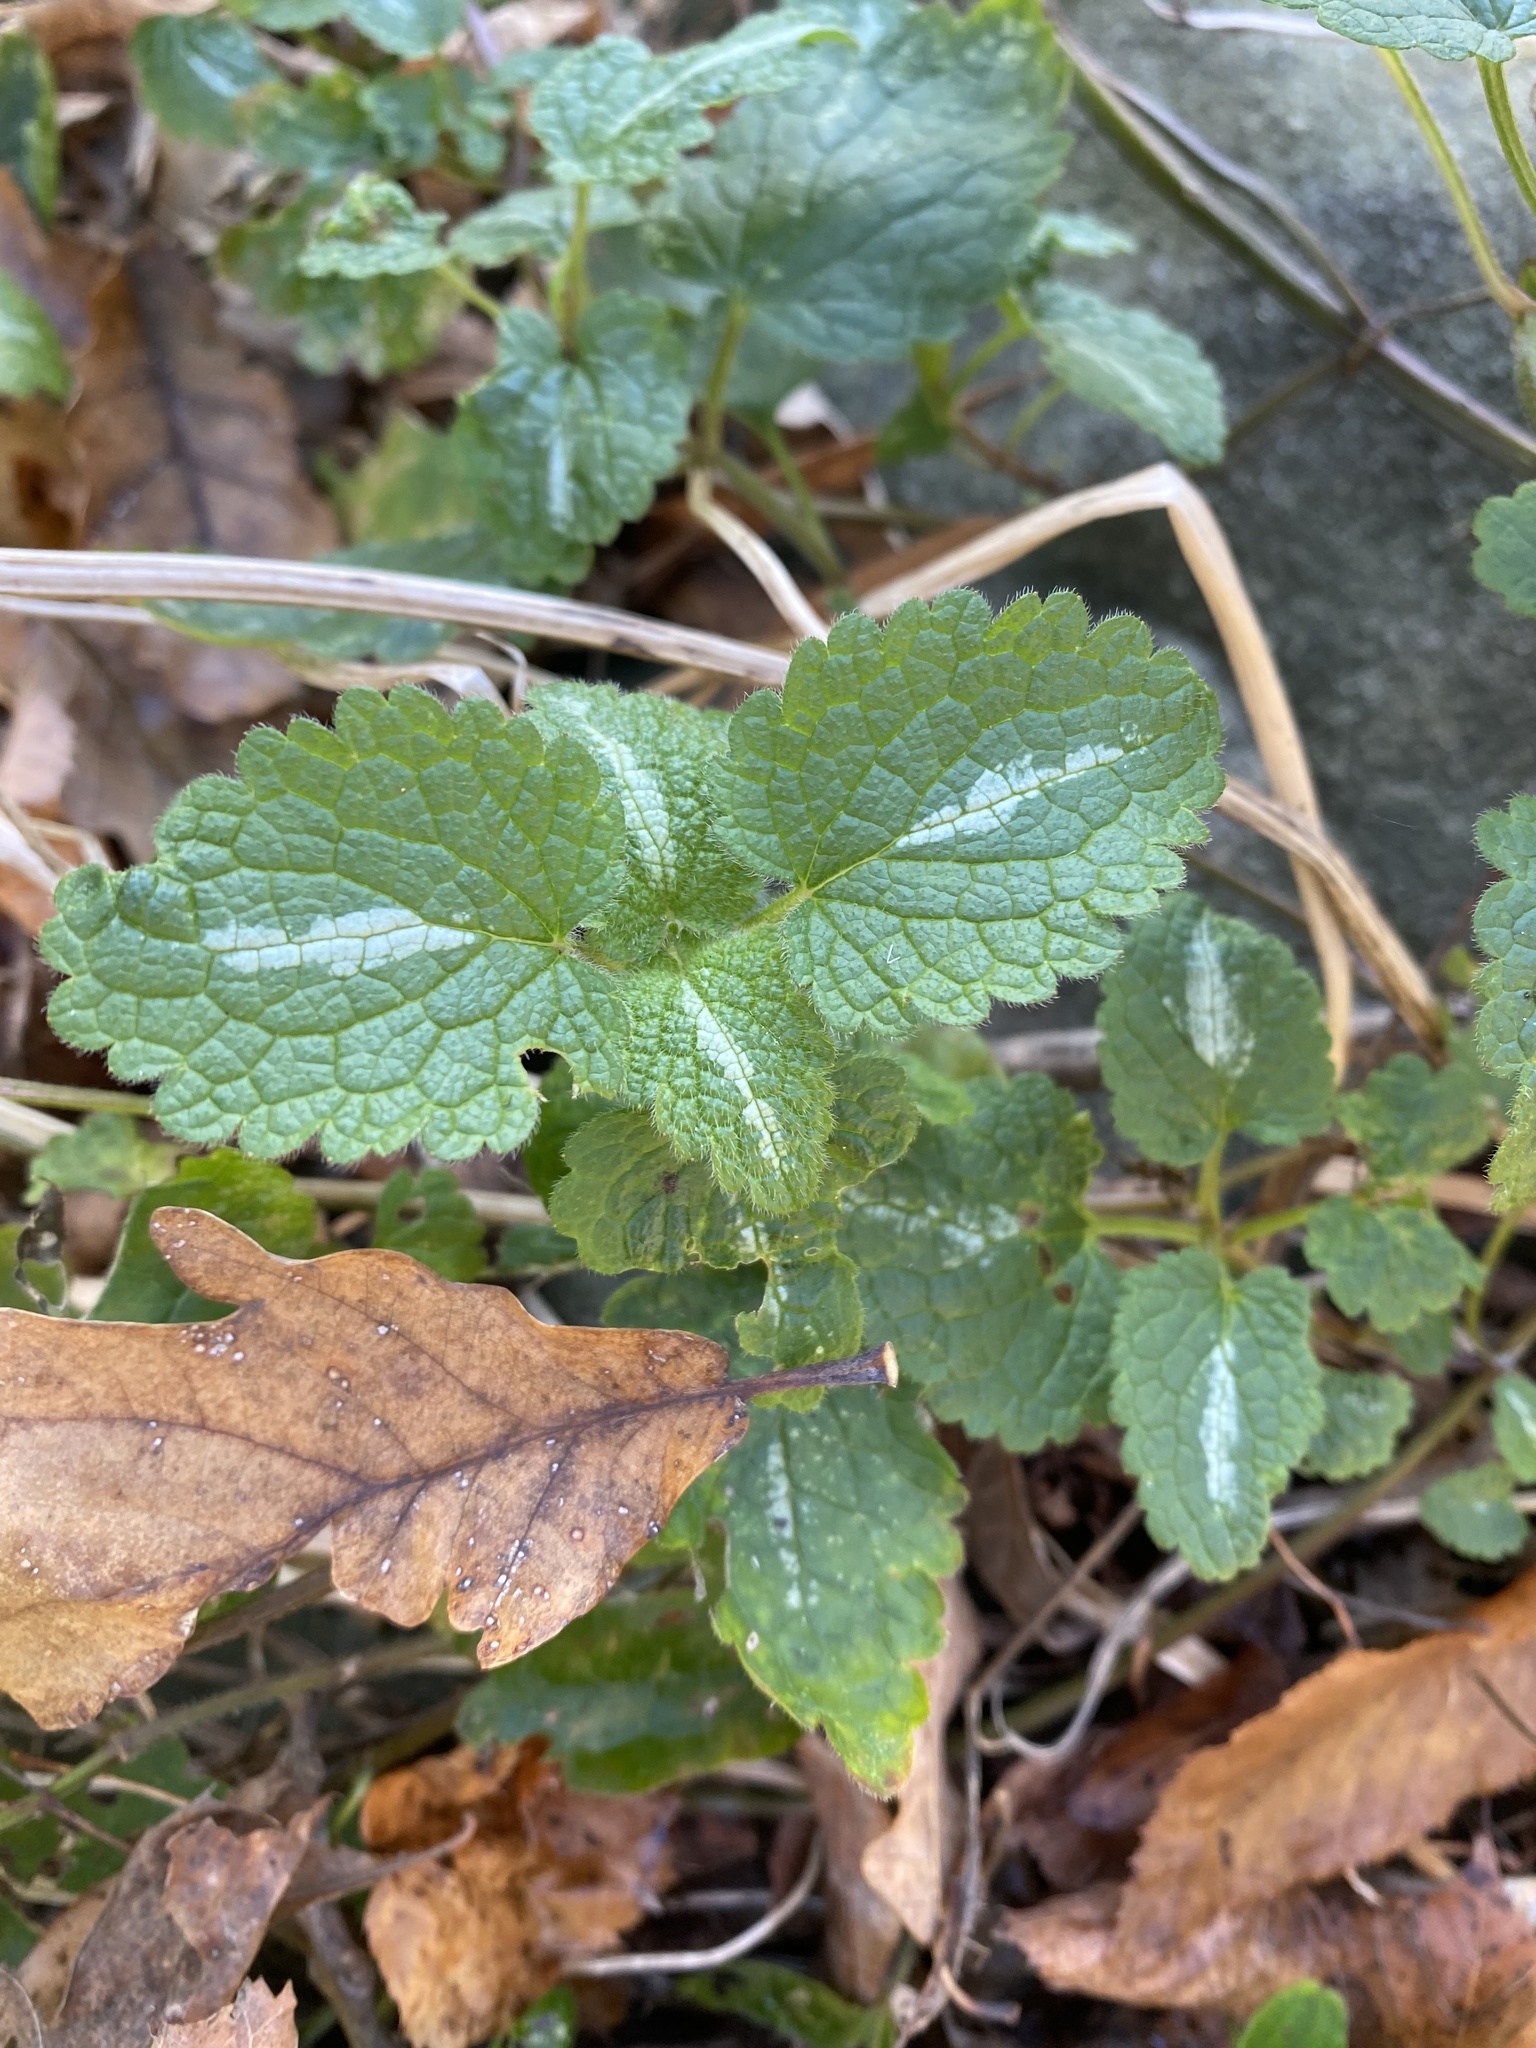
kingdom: Plantae
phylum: Tracheophyta
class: Magnoliopsida
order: Lamiales
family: Lamiaceae
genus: Lamium
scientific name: Lamium maculatum
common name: Spotted dead-nettle
